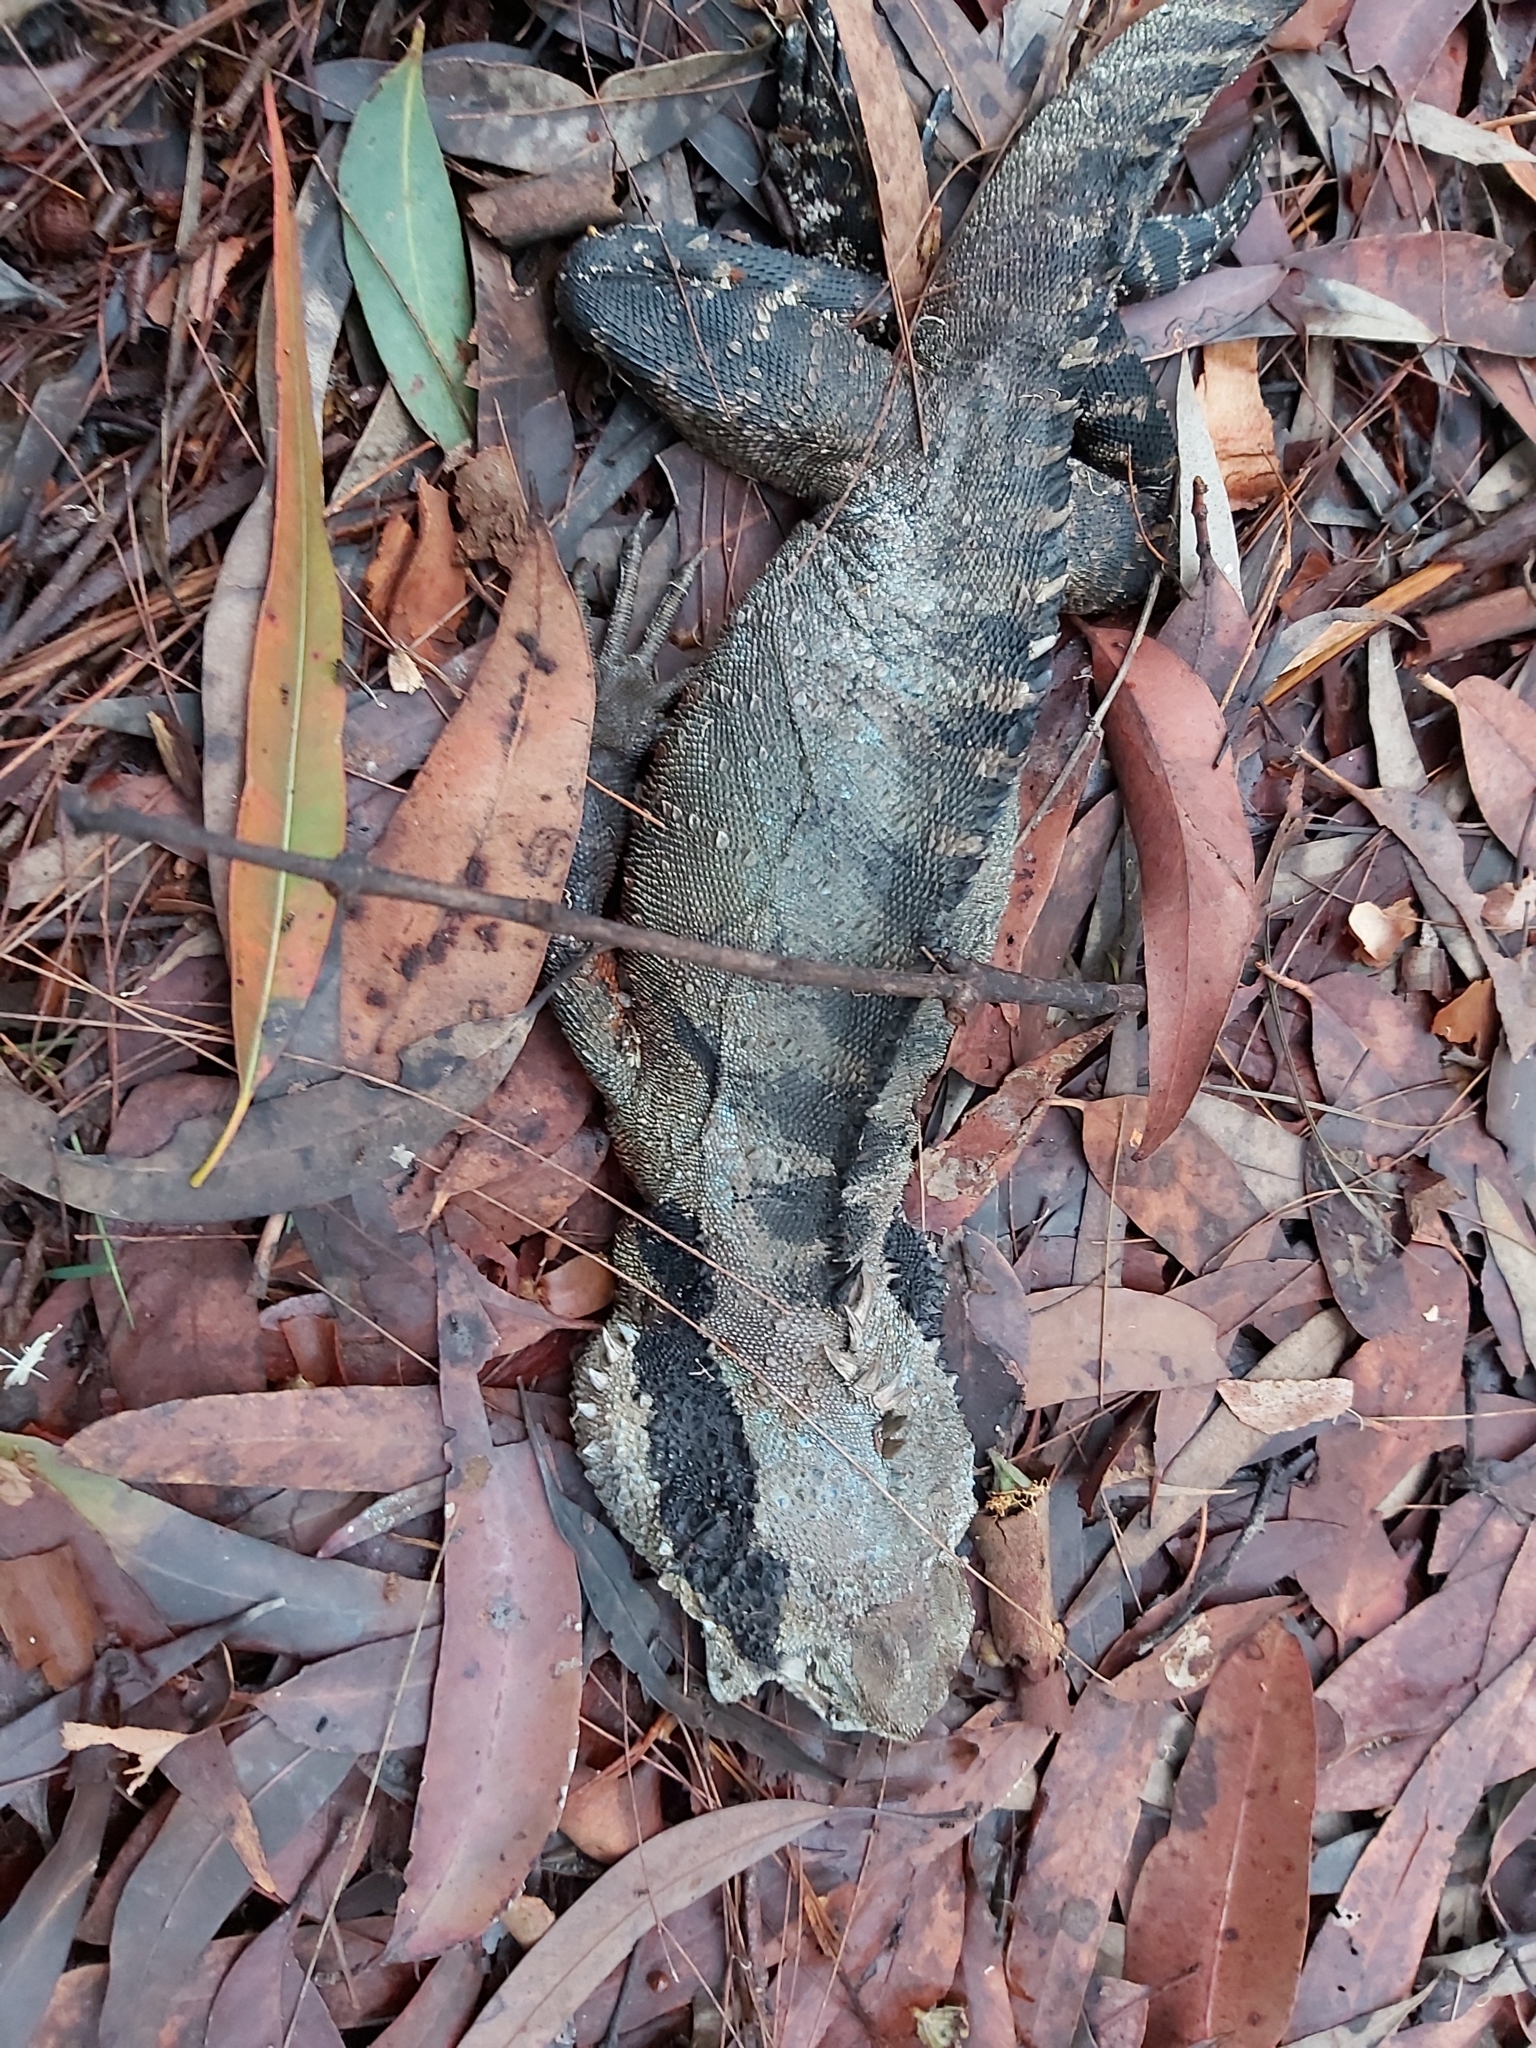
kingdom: Animalia
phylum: Chordata
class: Squamata
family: Agamidae
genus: Intellagama
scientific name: Intellagama lesueurii
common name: Eastern water dragon
